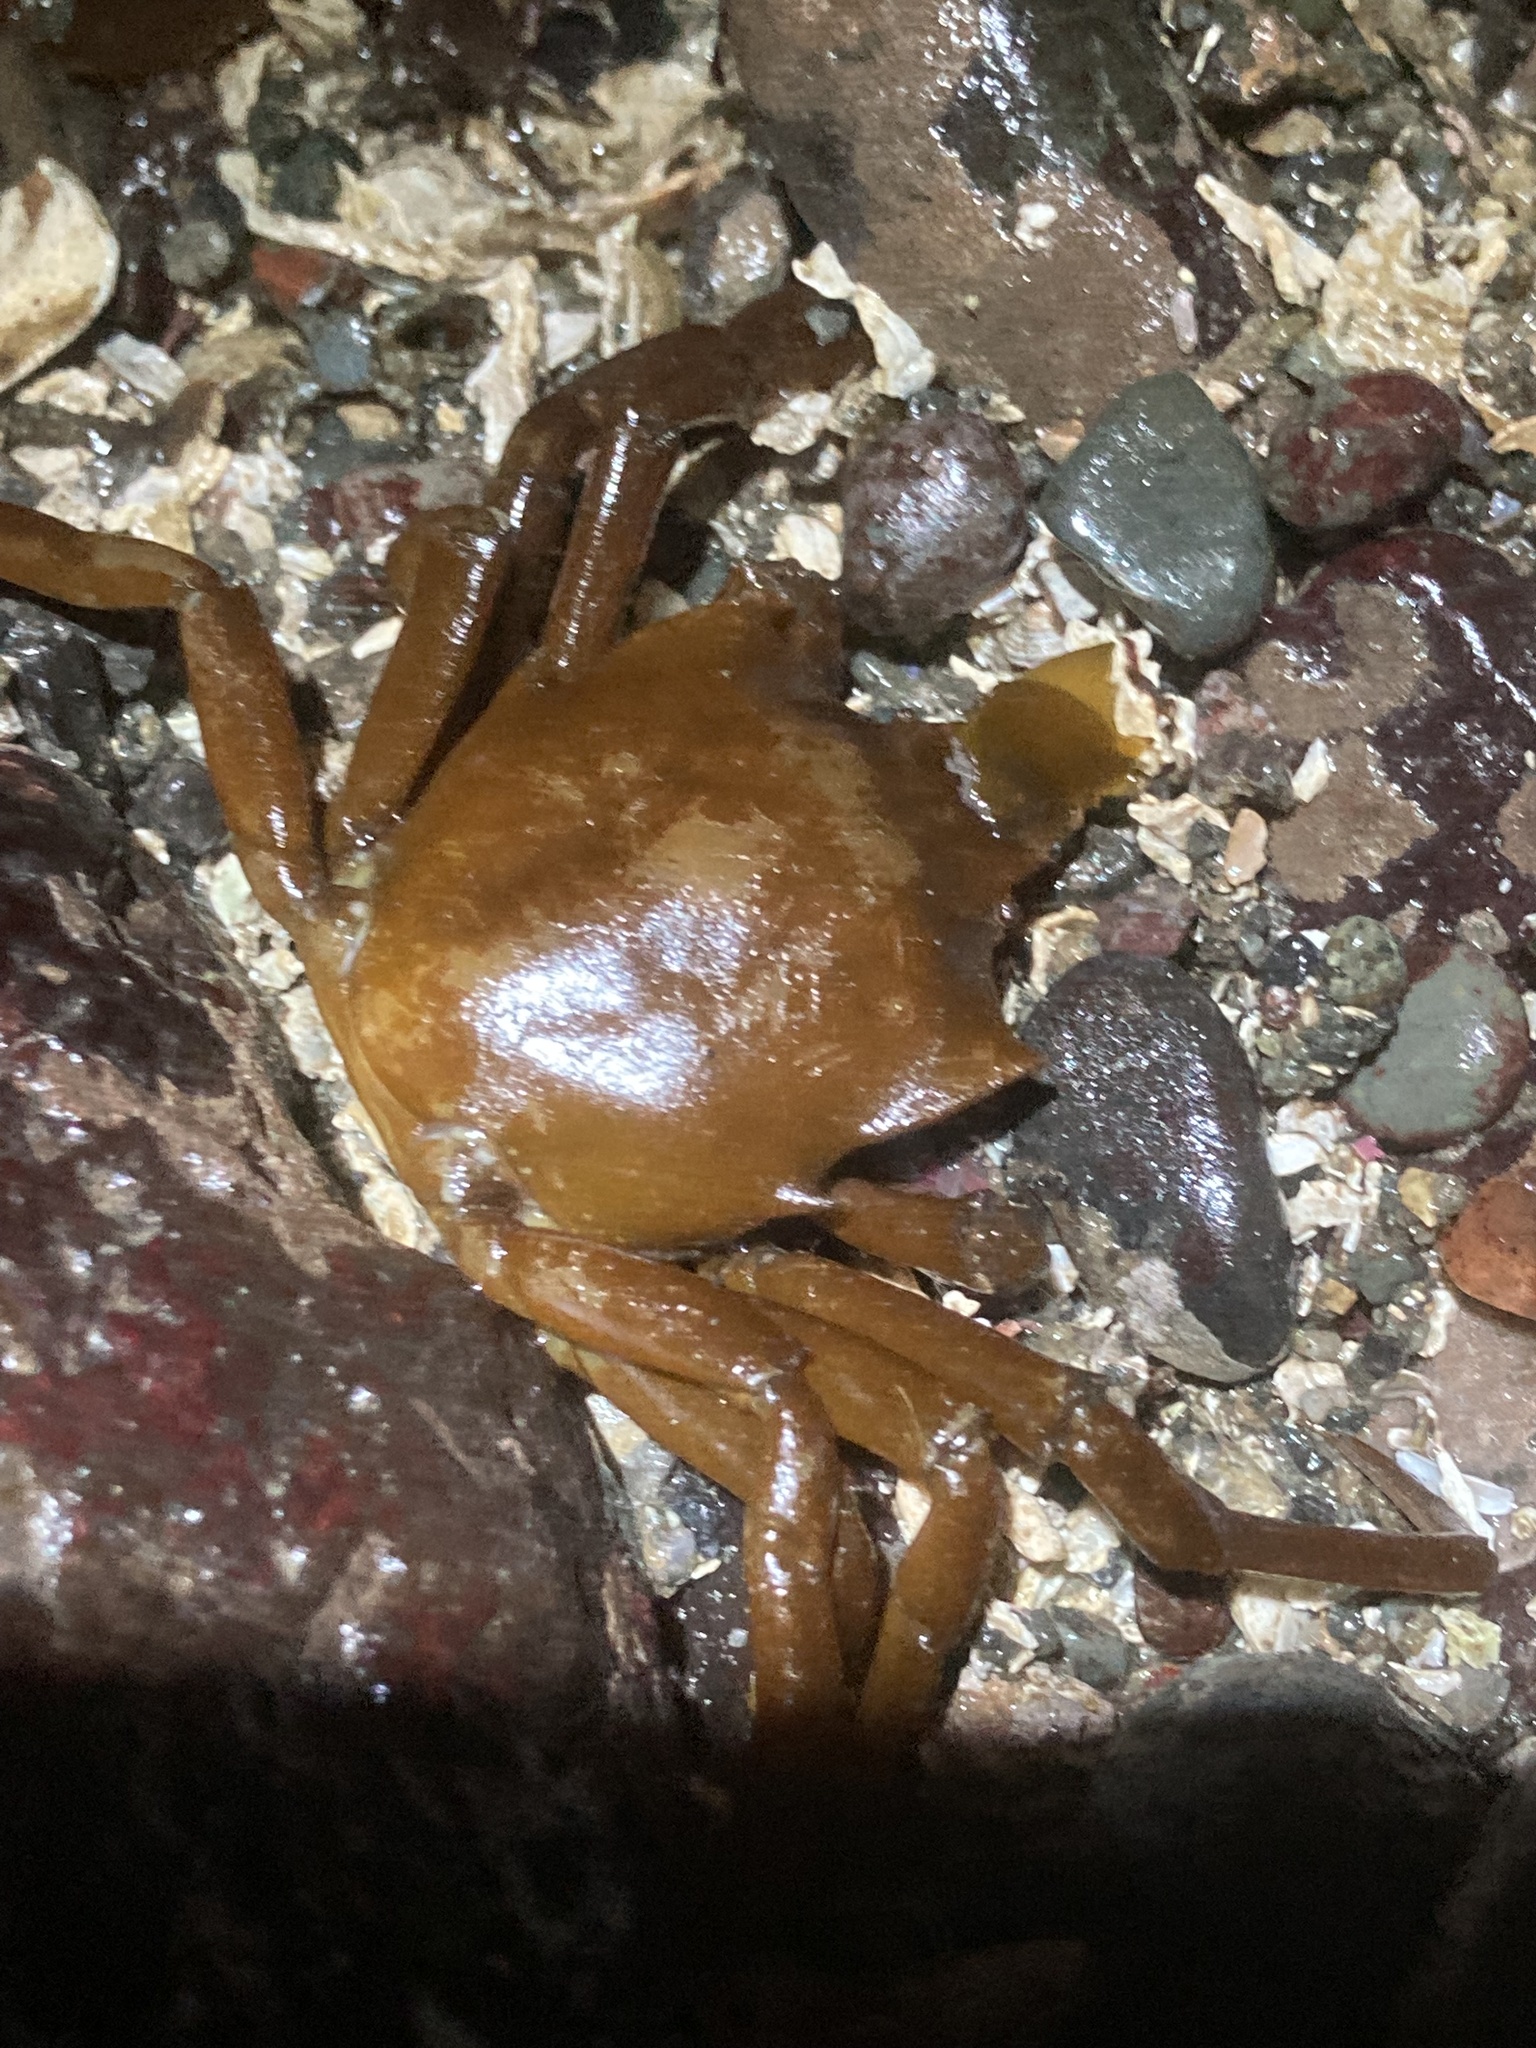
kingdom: Animalia
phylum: Arthropoda
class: Malacostraca
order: Decapoda
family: Epialtidae
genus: Pugettia
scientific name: Pugettia producta
